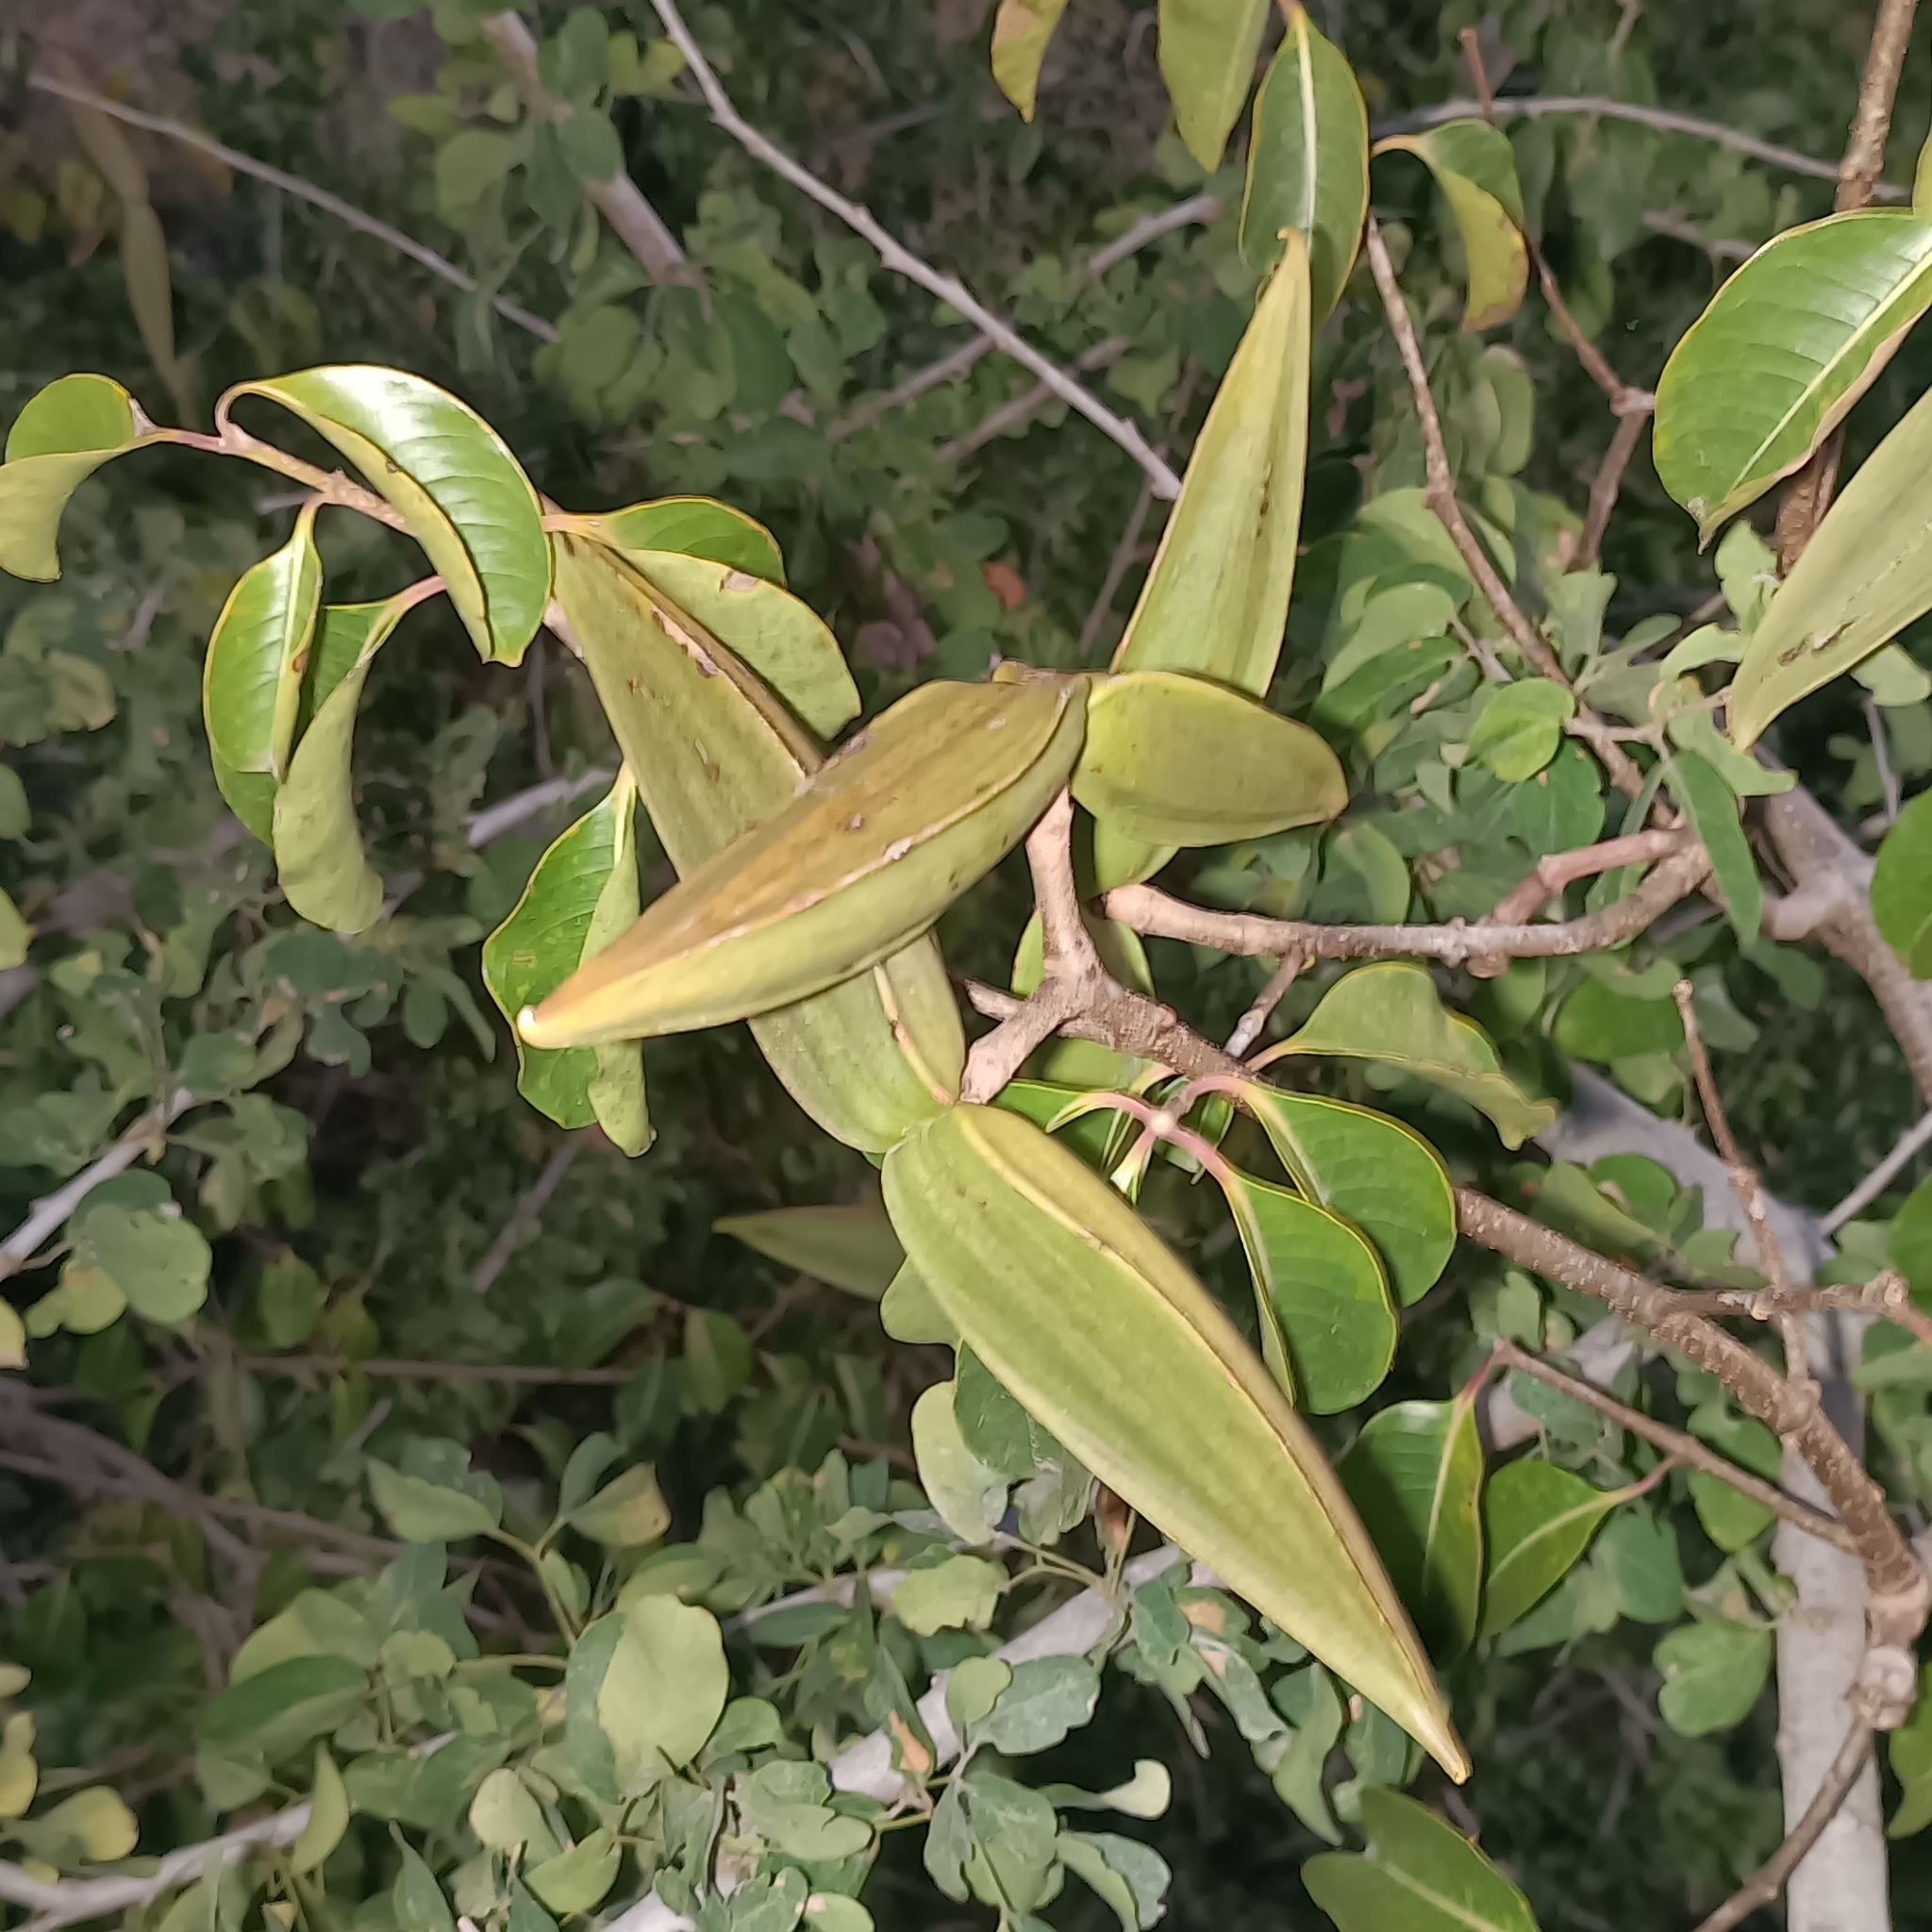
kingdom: Plantae
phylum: Tracheophyta
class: Magnoliopsida
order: Gentianales
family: Apocynaceae
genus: Cryptostegia
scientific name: Cryptostegia grandiflora
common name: Palay rubbervine
